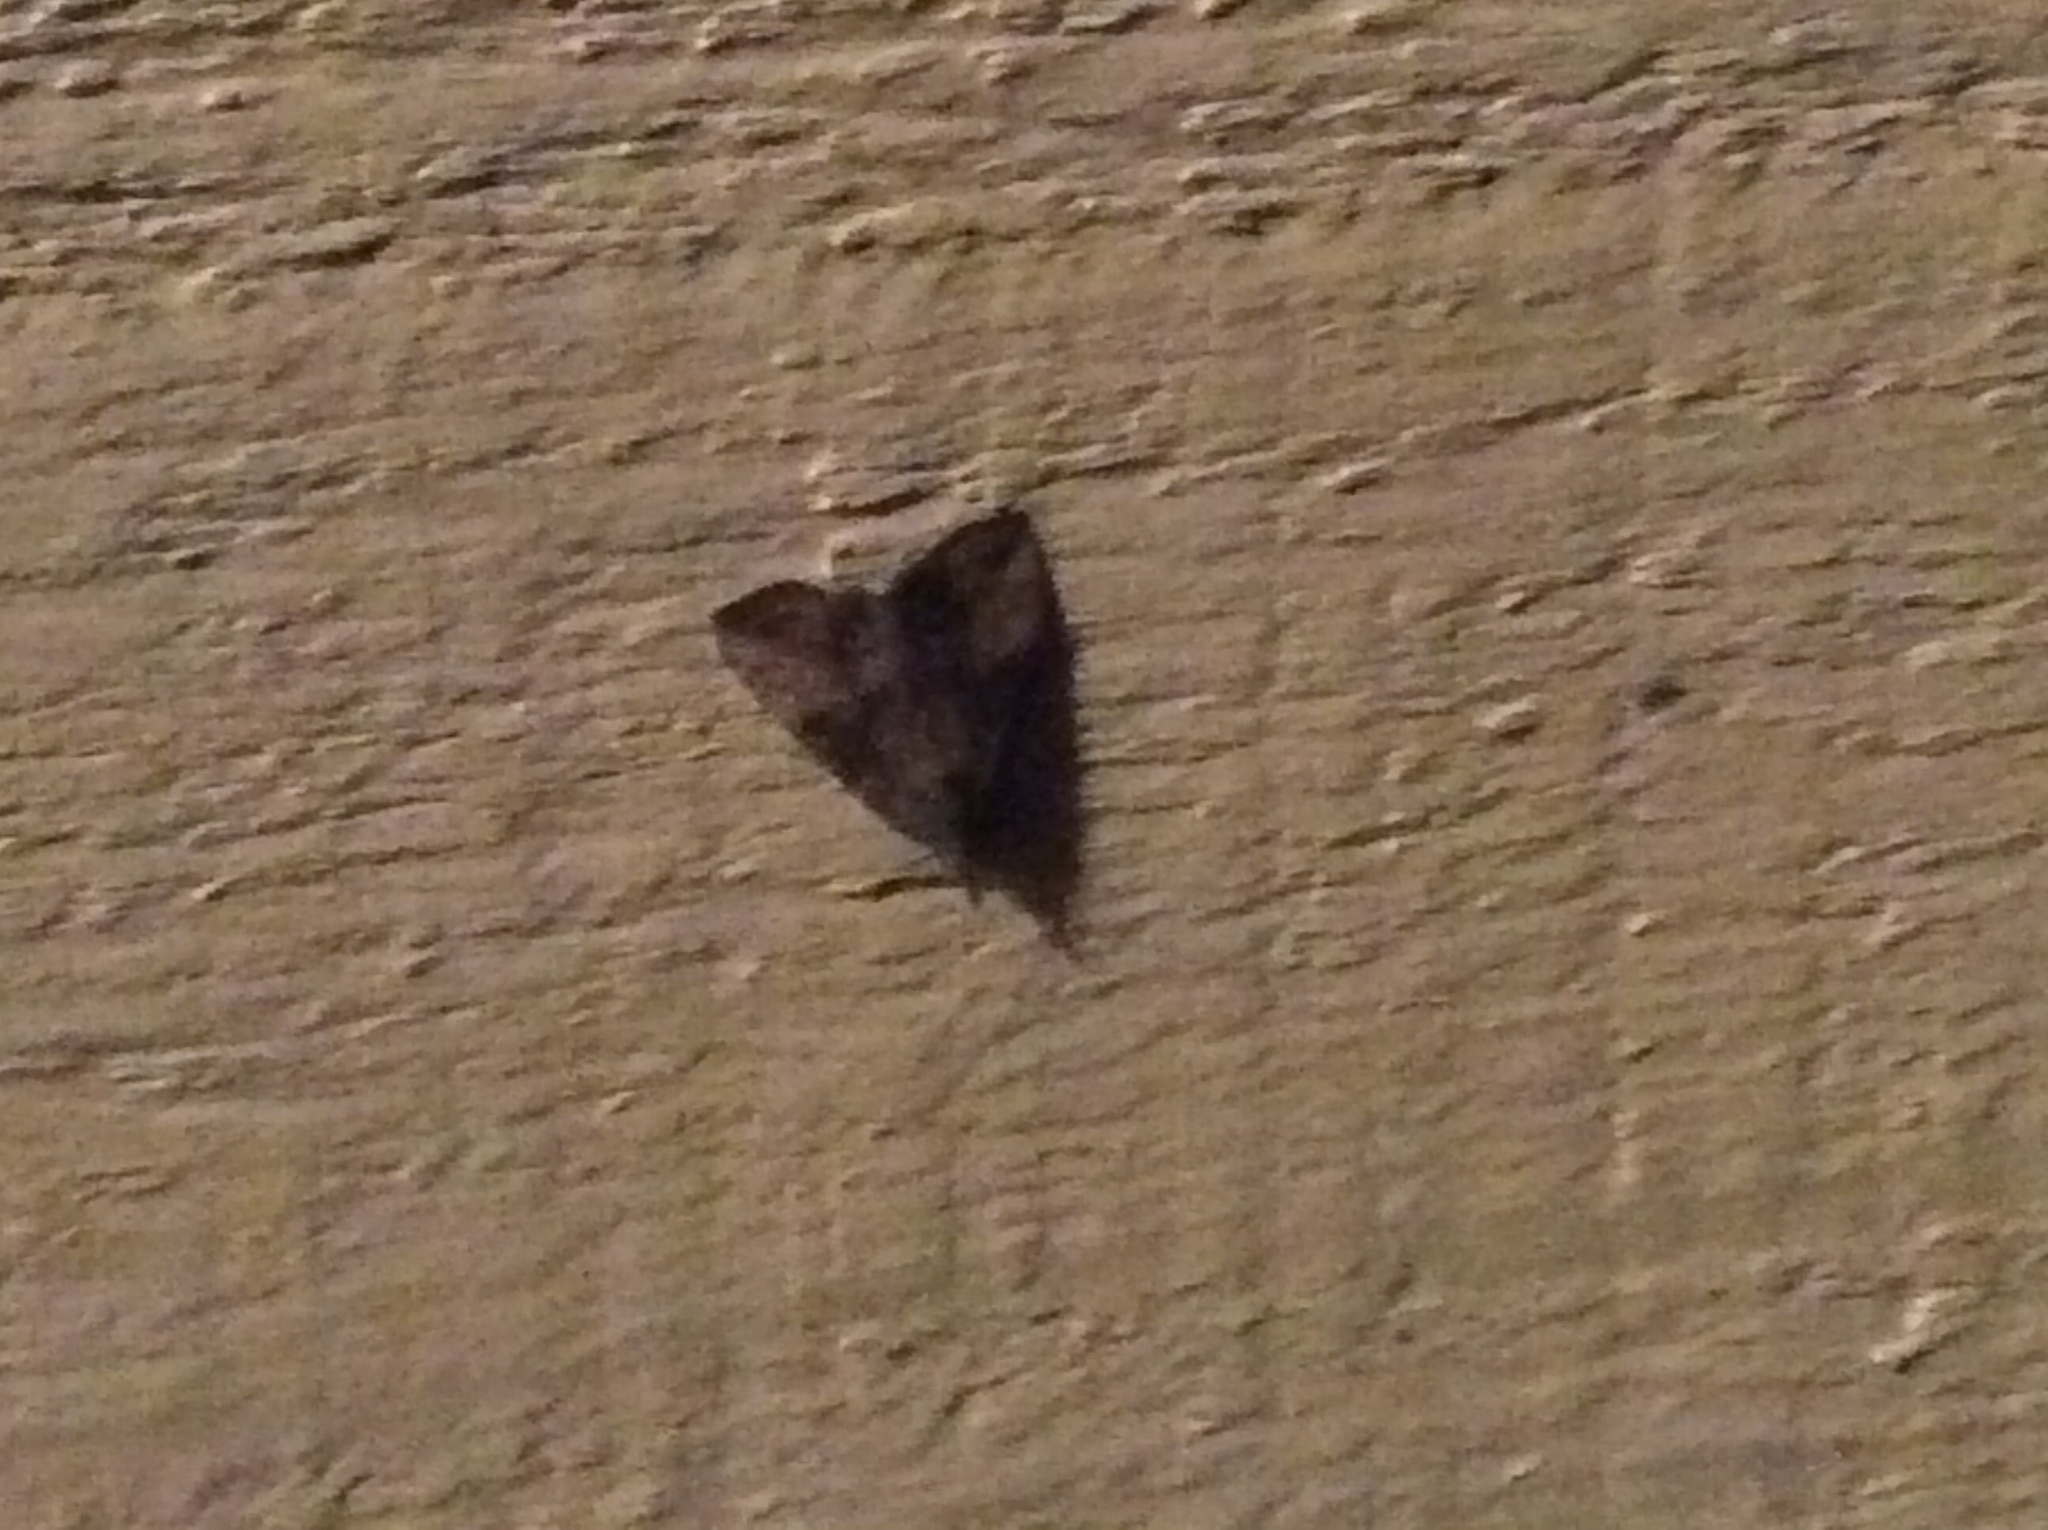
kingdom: Animalia
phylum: Arthropoda
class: Insecta
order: Lepidoptera
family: Erebidae
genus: Hypena
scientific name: Hypena scabra
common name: Green cloverworm
